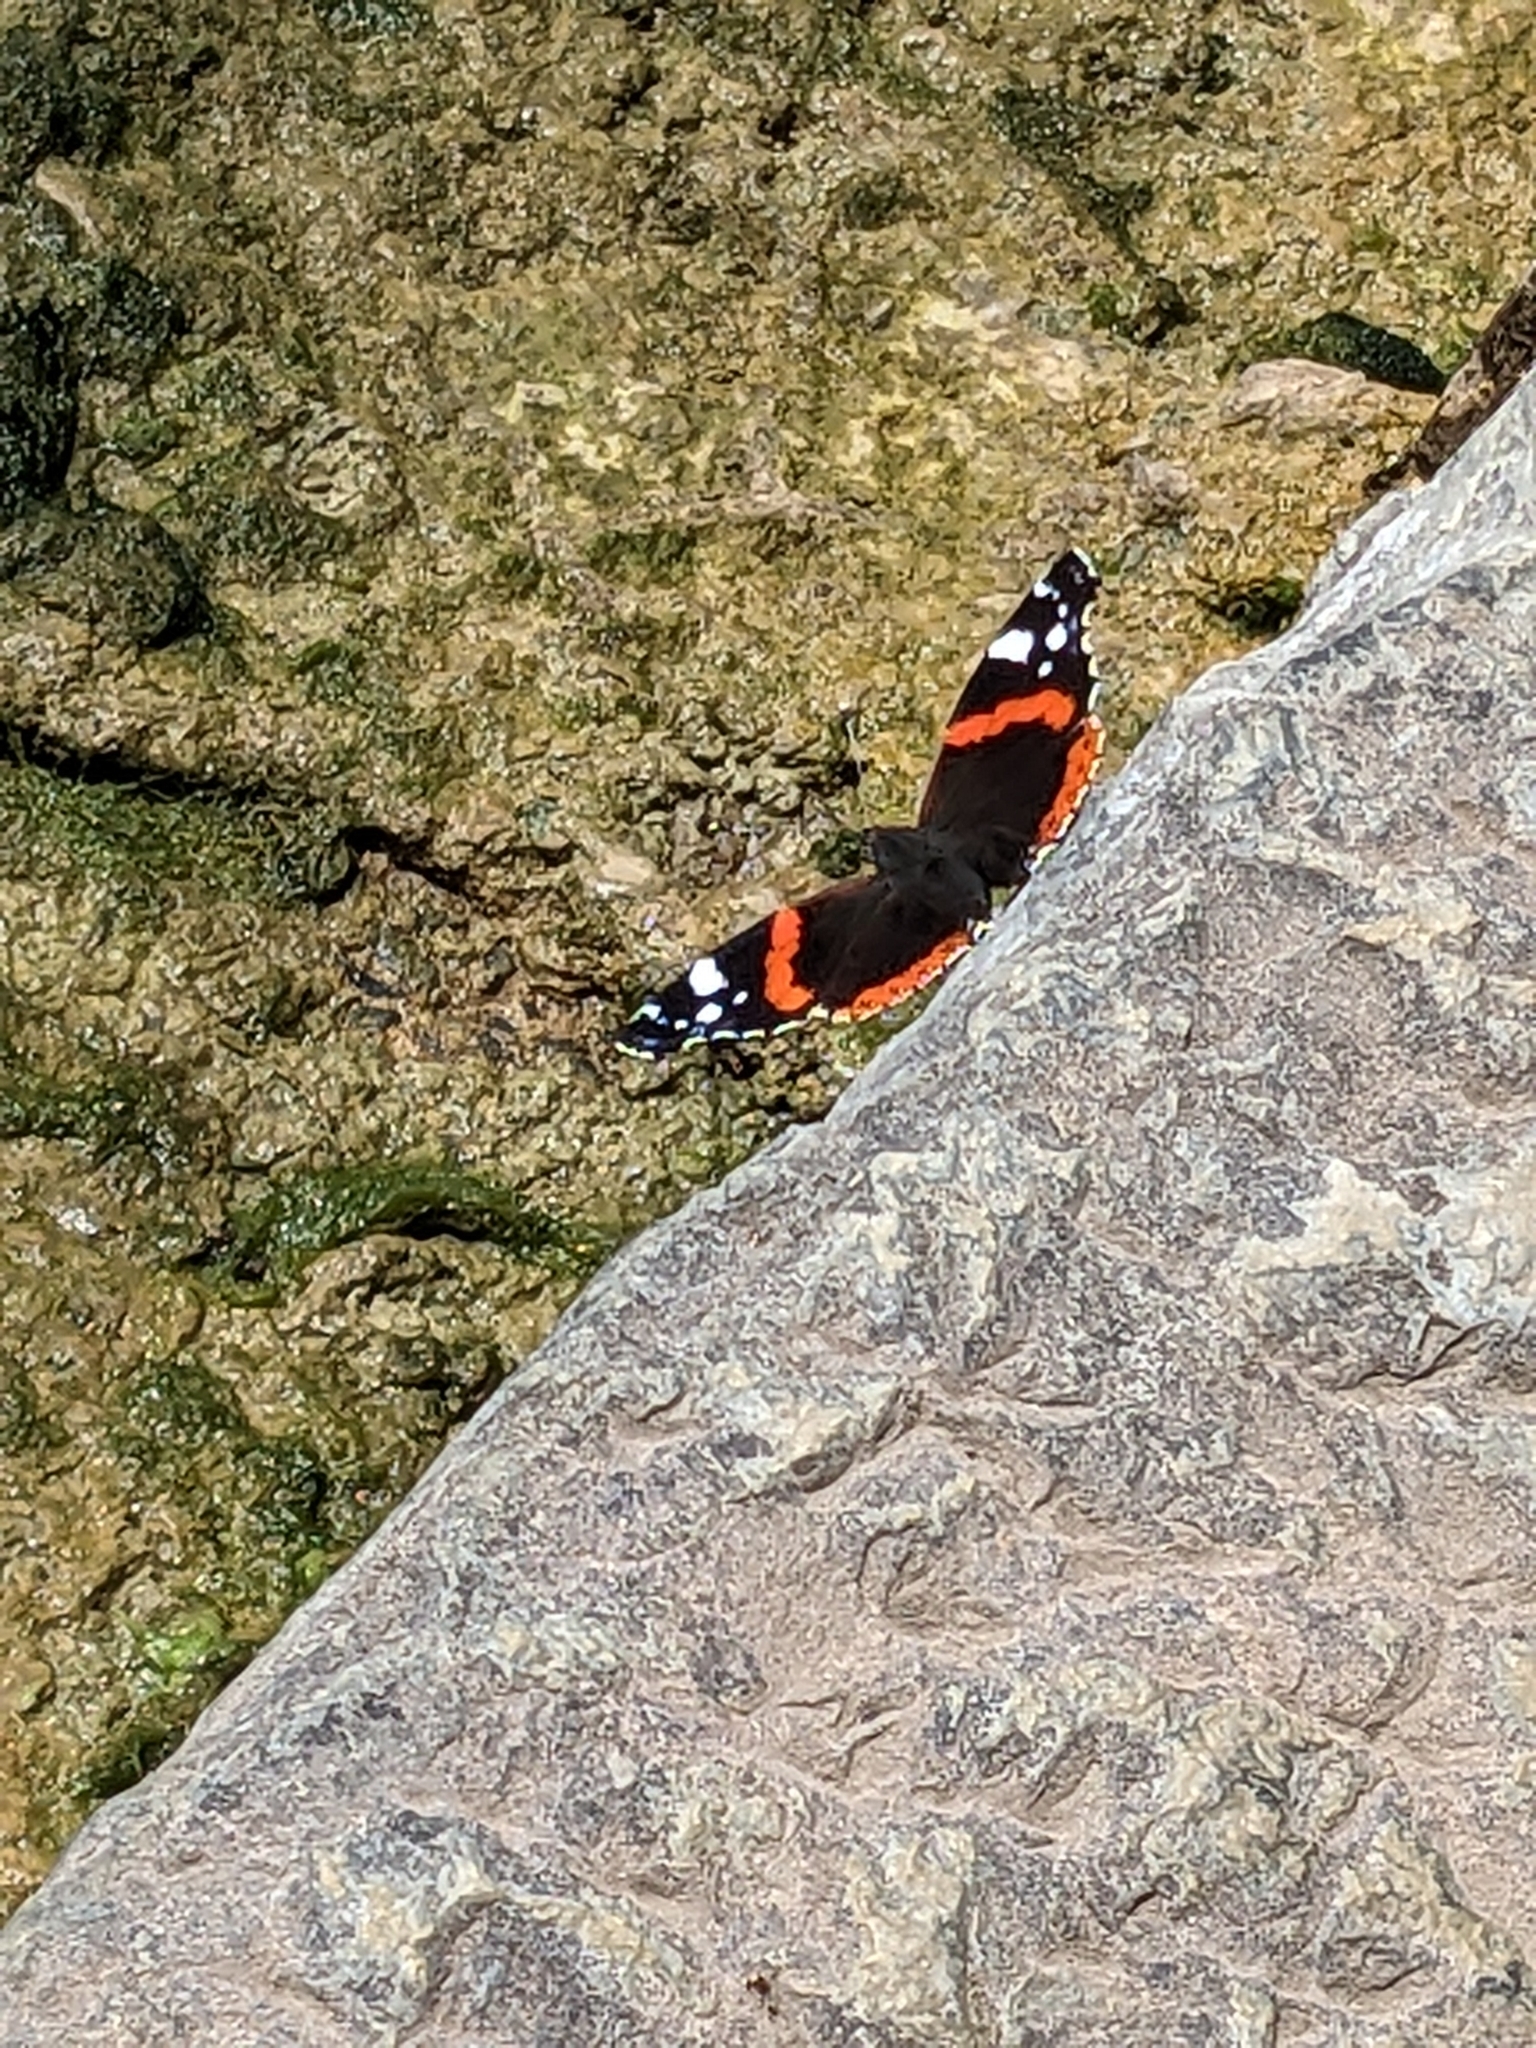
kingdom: Animalia
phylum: Arthropoda
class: Insecta
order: Lepidoptera
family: Nymphalidae
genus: Vanessa
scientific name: Vanessa atalanta
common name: Red admiral
